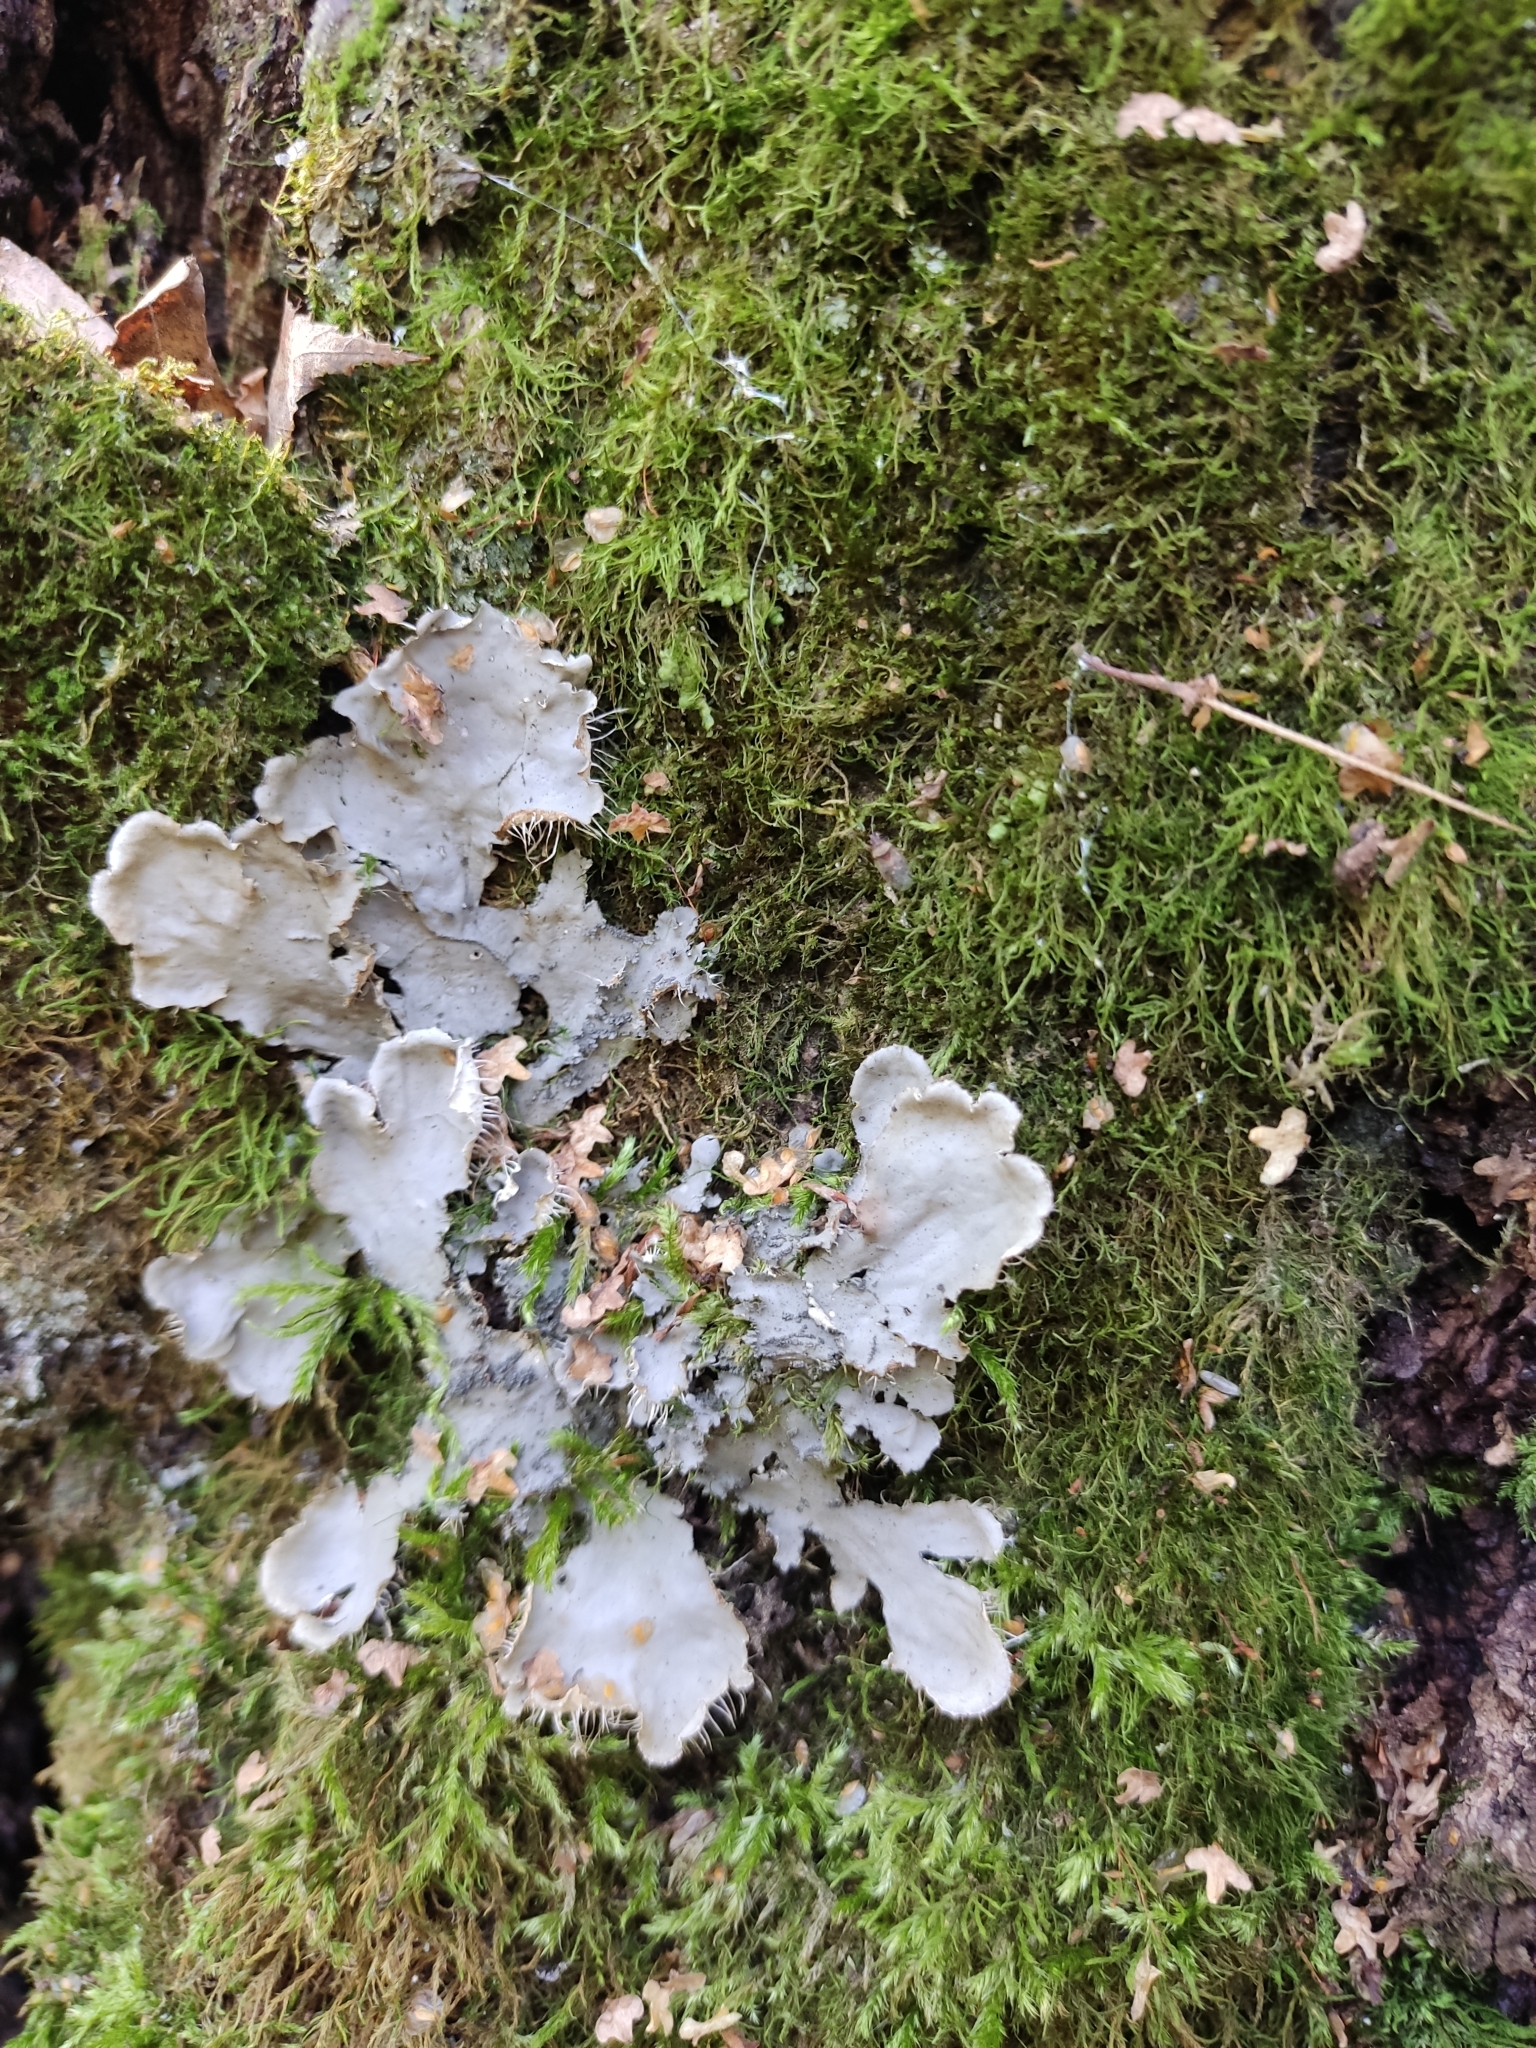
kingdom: Fungi
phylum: Ascomycota
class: Lecanoromycetes
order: Peltigerales
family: Peltigeraceae
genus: Peltigera
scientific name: Peltigera praetextata
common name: Scaly dog-lichen
